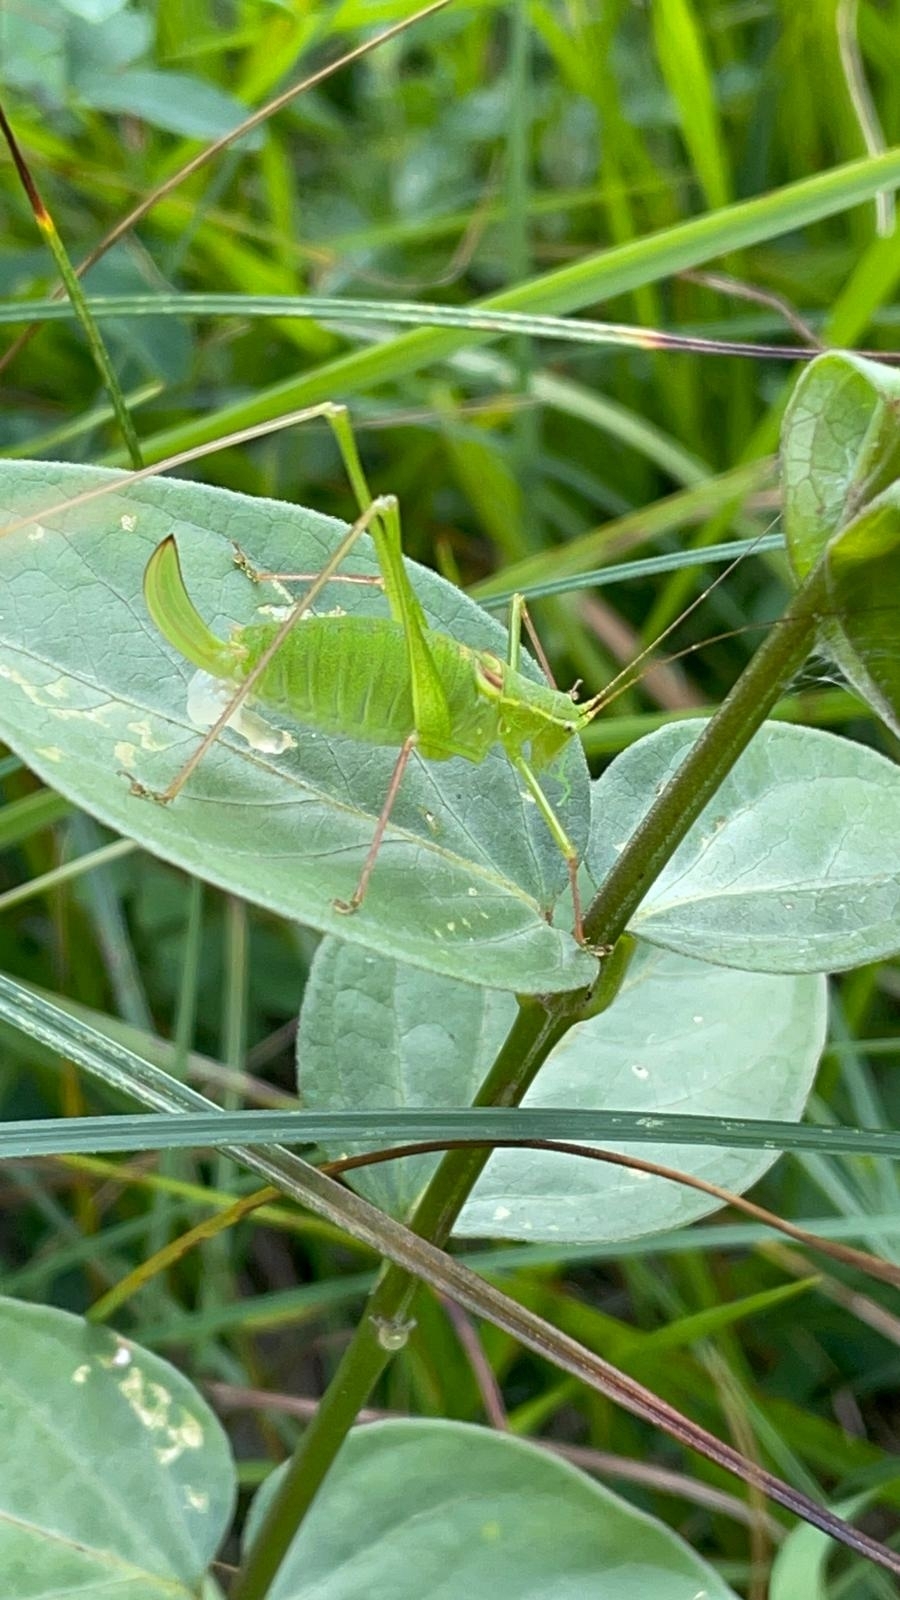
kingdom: Animalia
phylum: Arthropoda
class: Insecta
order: Orthoptera
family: Tettigoniidae
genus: Leptophyes
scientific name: Leptophyes laticauda
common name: Long-tailed speckled bush-cricket
